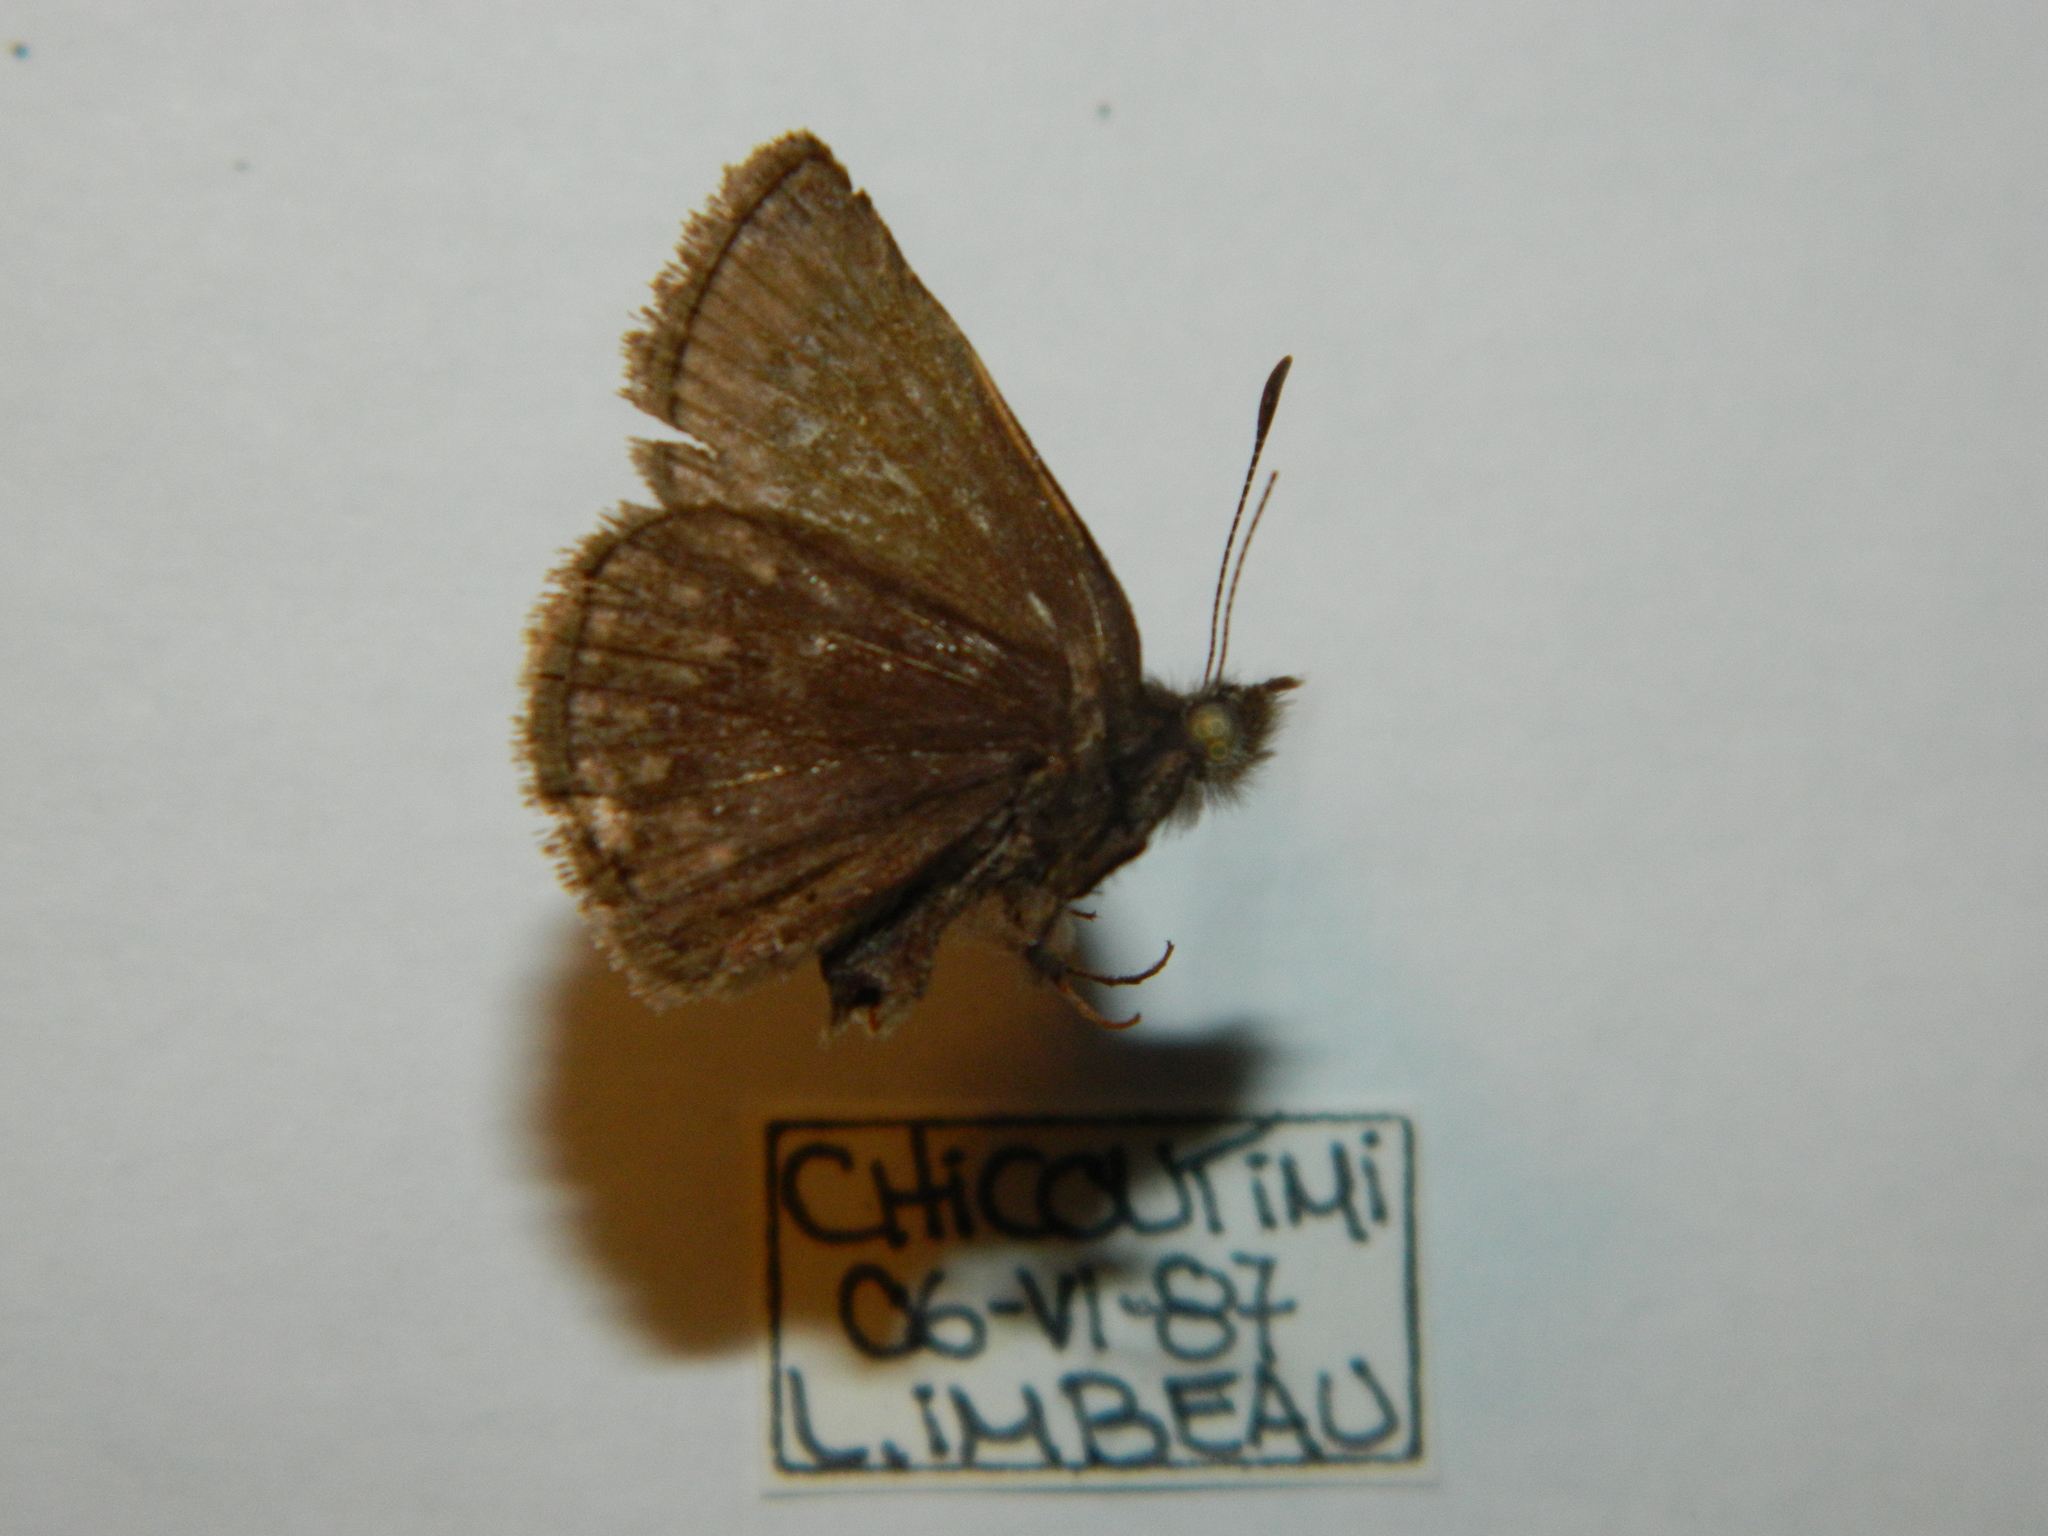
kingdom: Animalia
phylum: Arthropoda
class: Insecta
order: Lepidoptera
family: Hesperiidae
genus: Erynnis
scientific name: Erynnis icelus
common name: Dreamy duskywing
